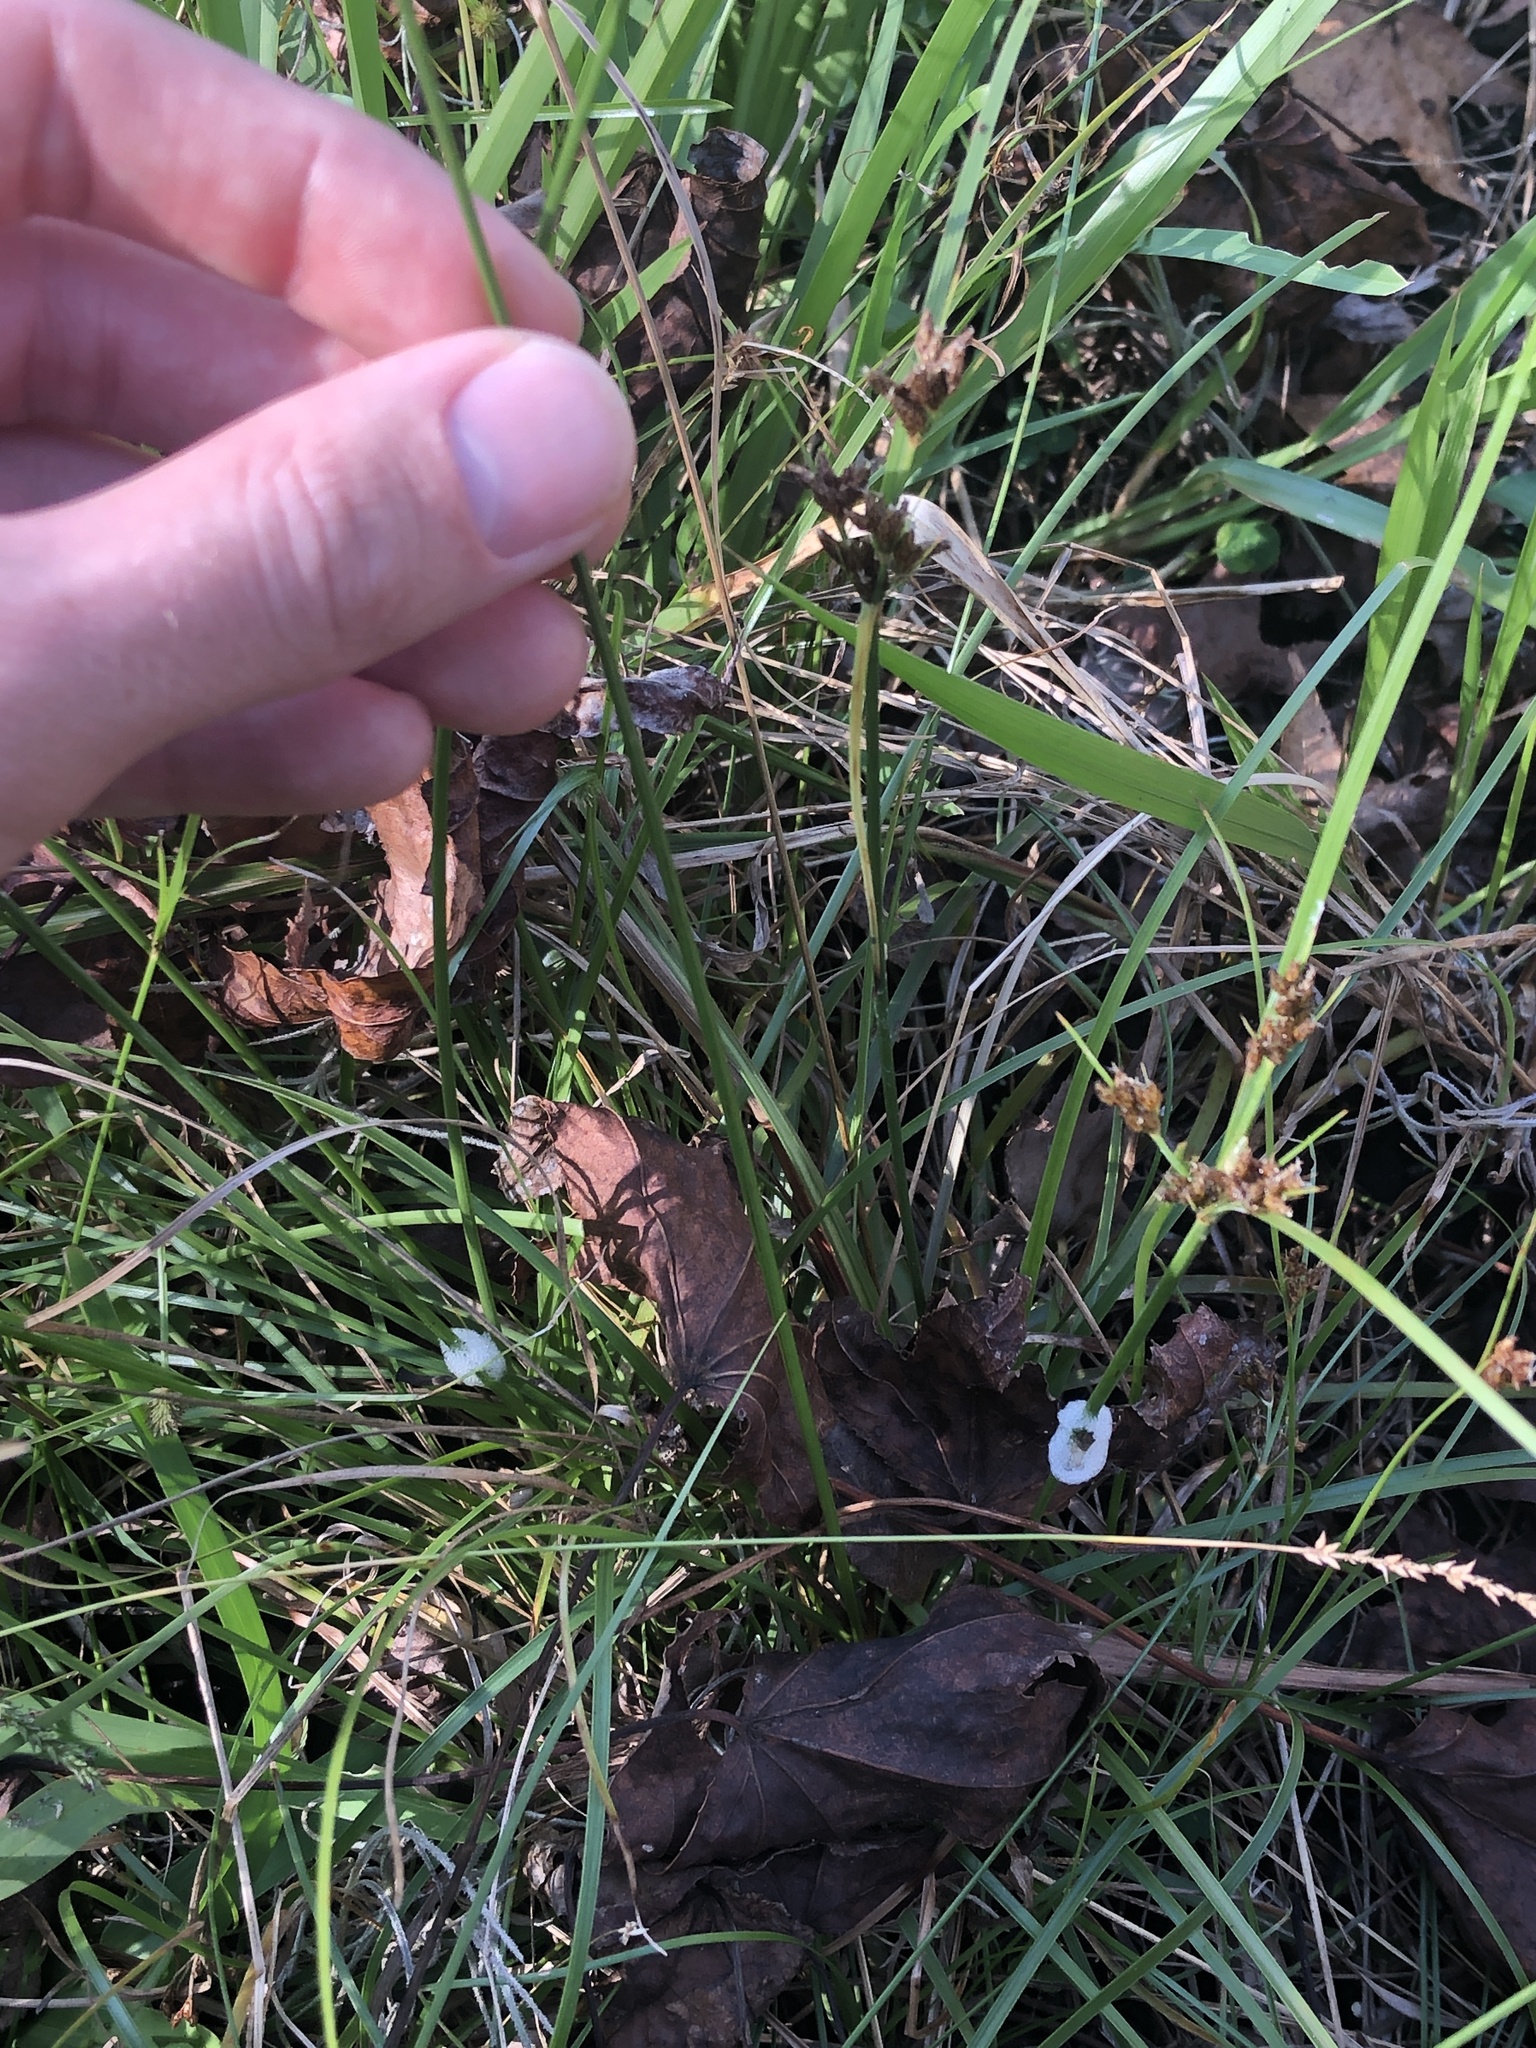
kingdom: Plantae
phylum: Tracheophyta
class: Liliopsida
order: Poales
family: Cyperaceae
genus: Fimbristylis
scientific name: Fimbristylis dichotoma
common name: Forked fimbry
